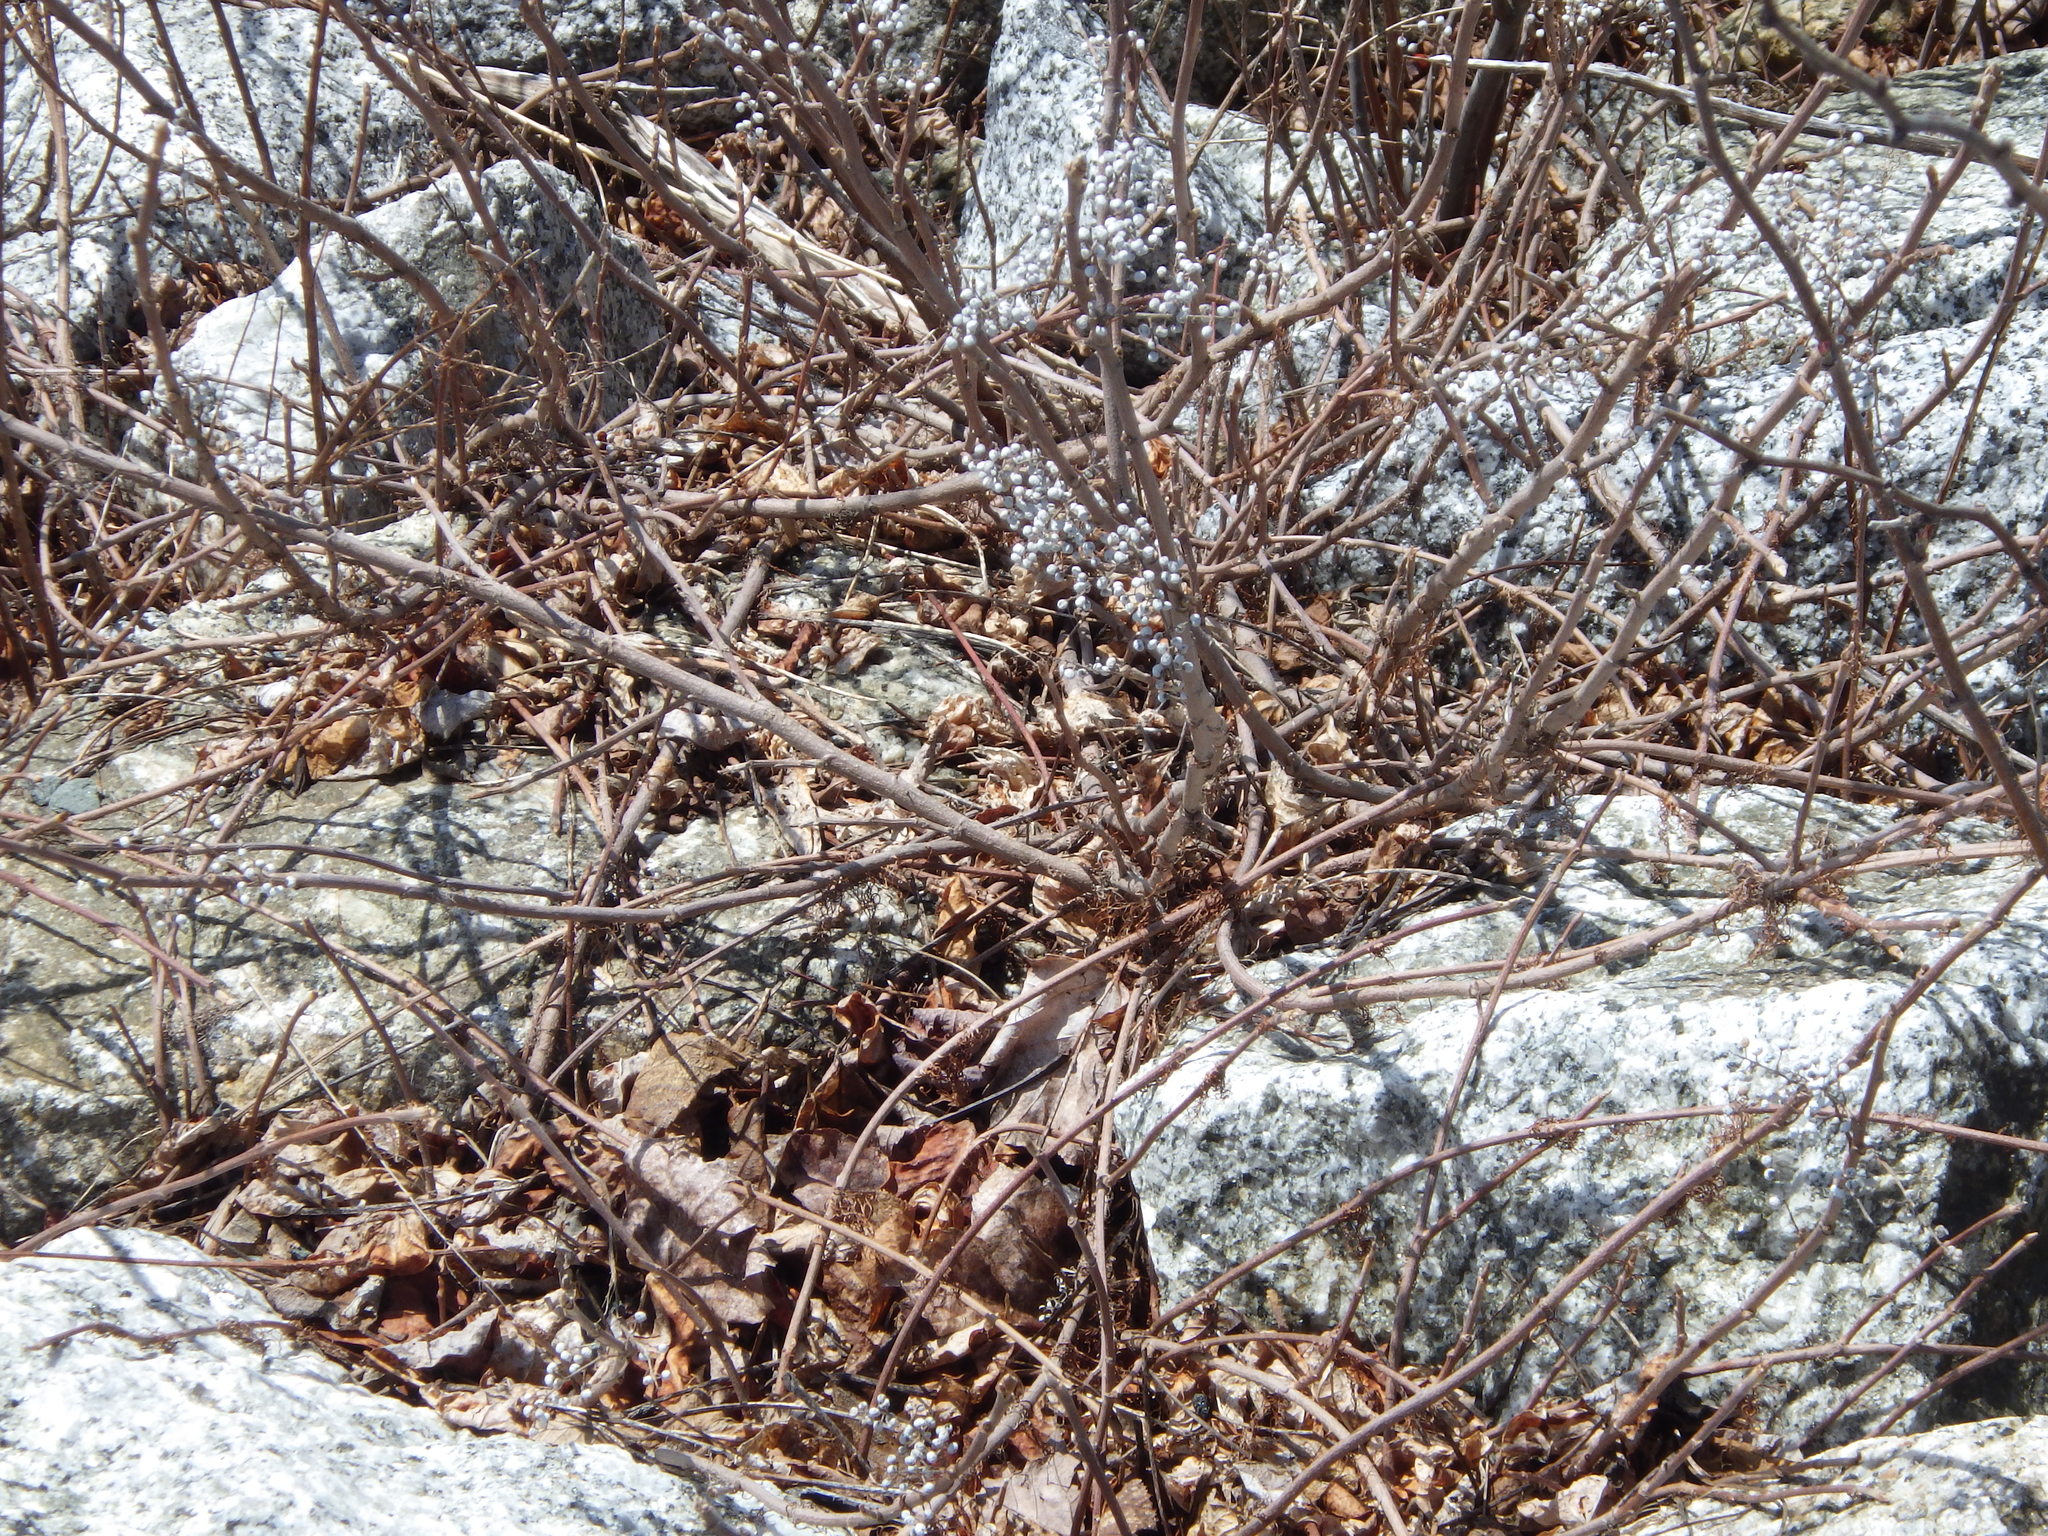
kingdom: Plantae
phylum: Tracheophyta
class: Magnoliopsida
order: Sapindales
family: Anacardiaceae
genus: Toxicodendron
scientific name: Toxicodendron radicans
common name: Poison ivy
